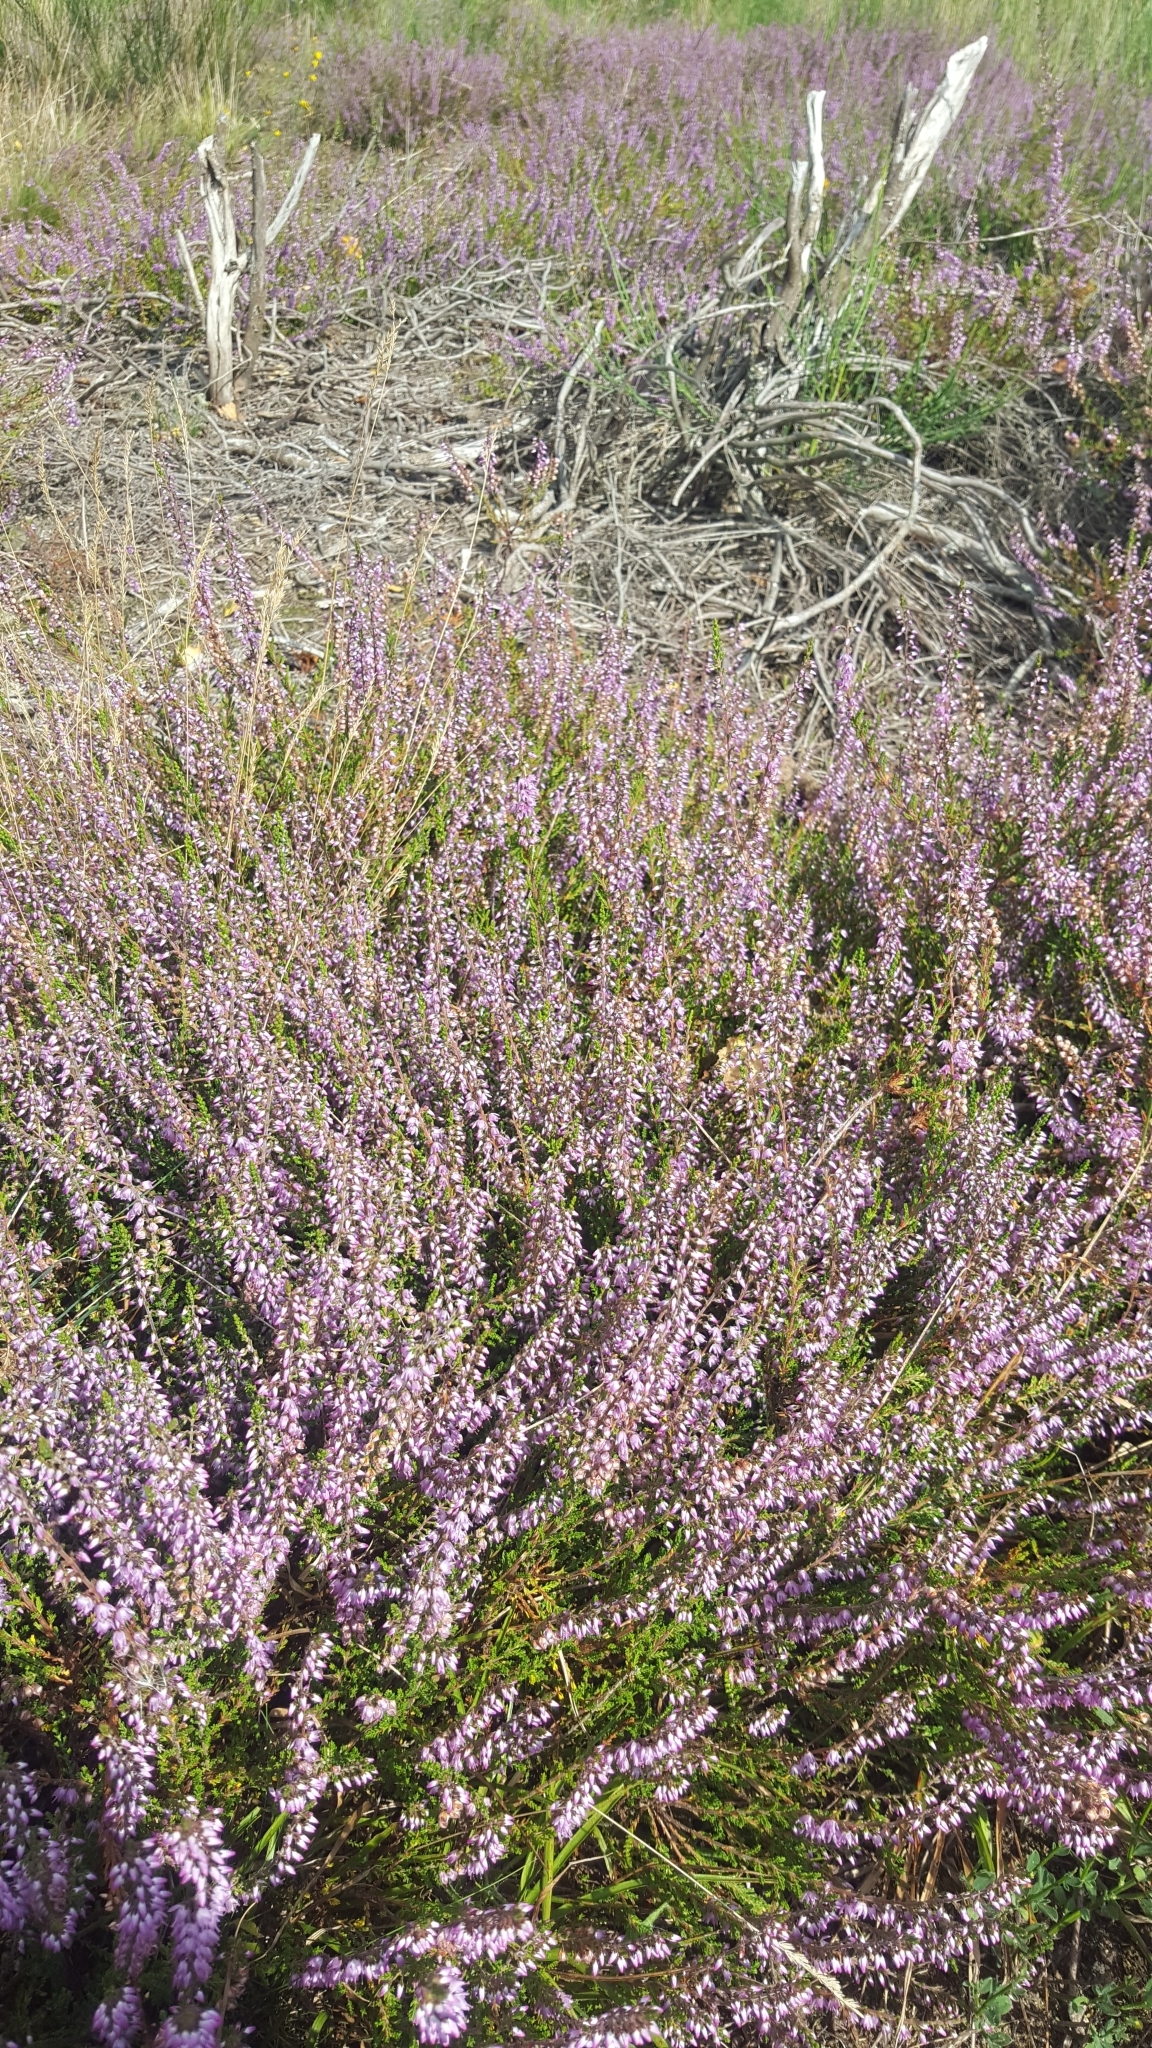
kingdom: Plantae
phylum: Tracheophyta
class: Magnoliopsida
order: Ericales
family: Ericaceae
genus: Calluna
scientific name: Calluna vulgaris
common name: Heather
